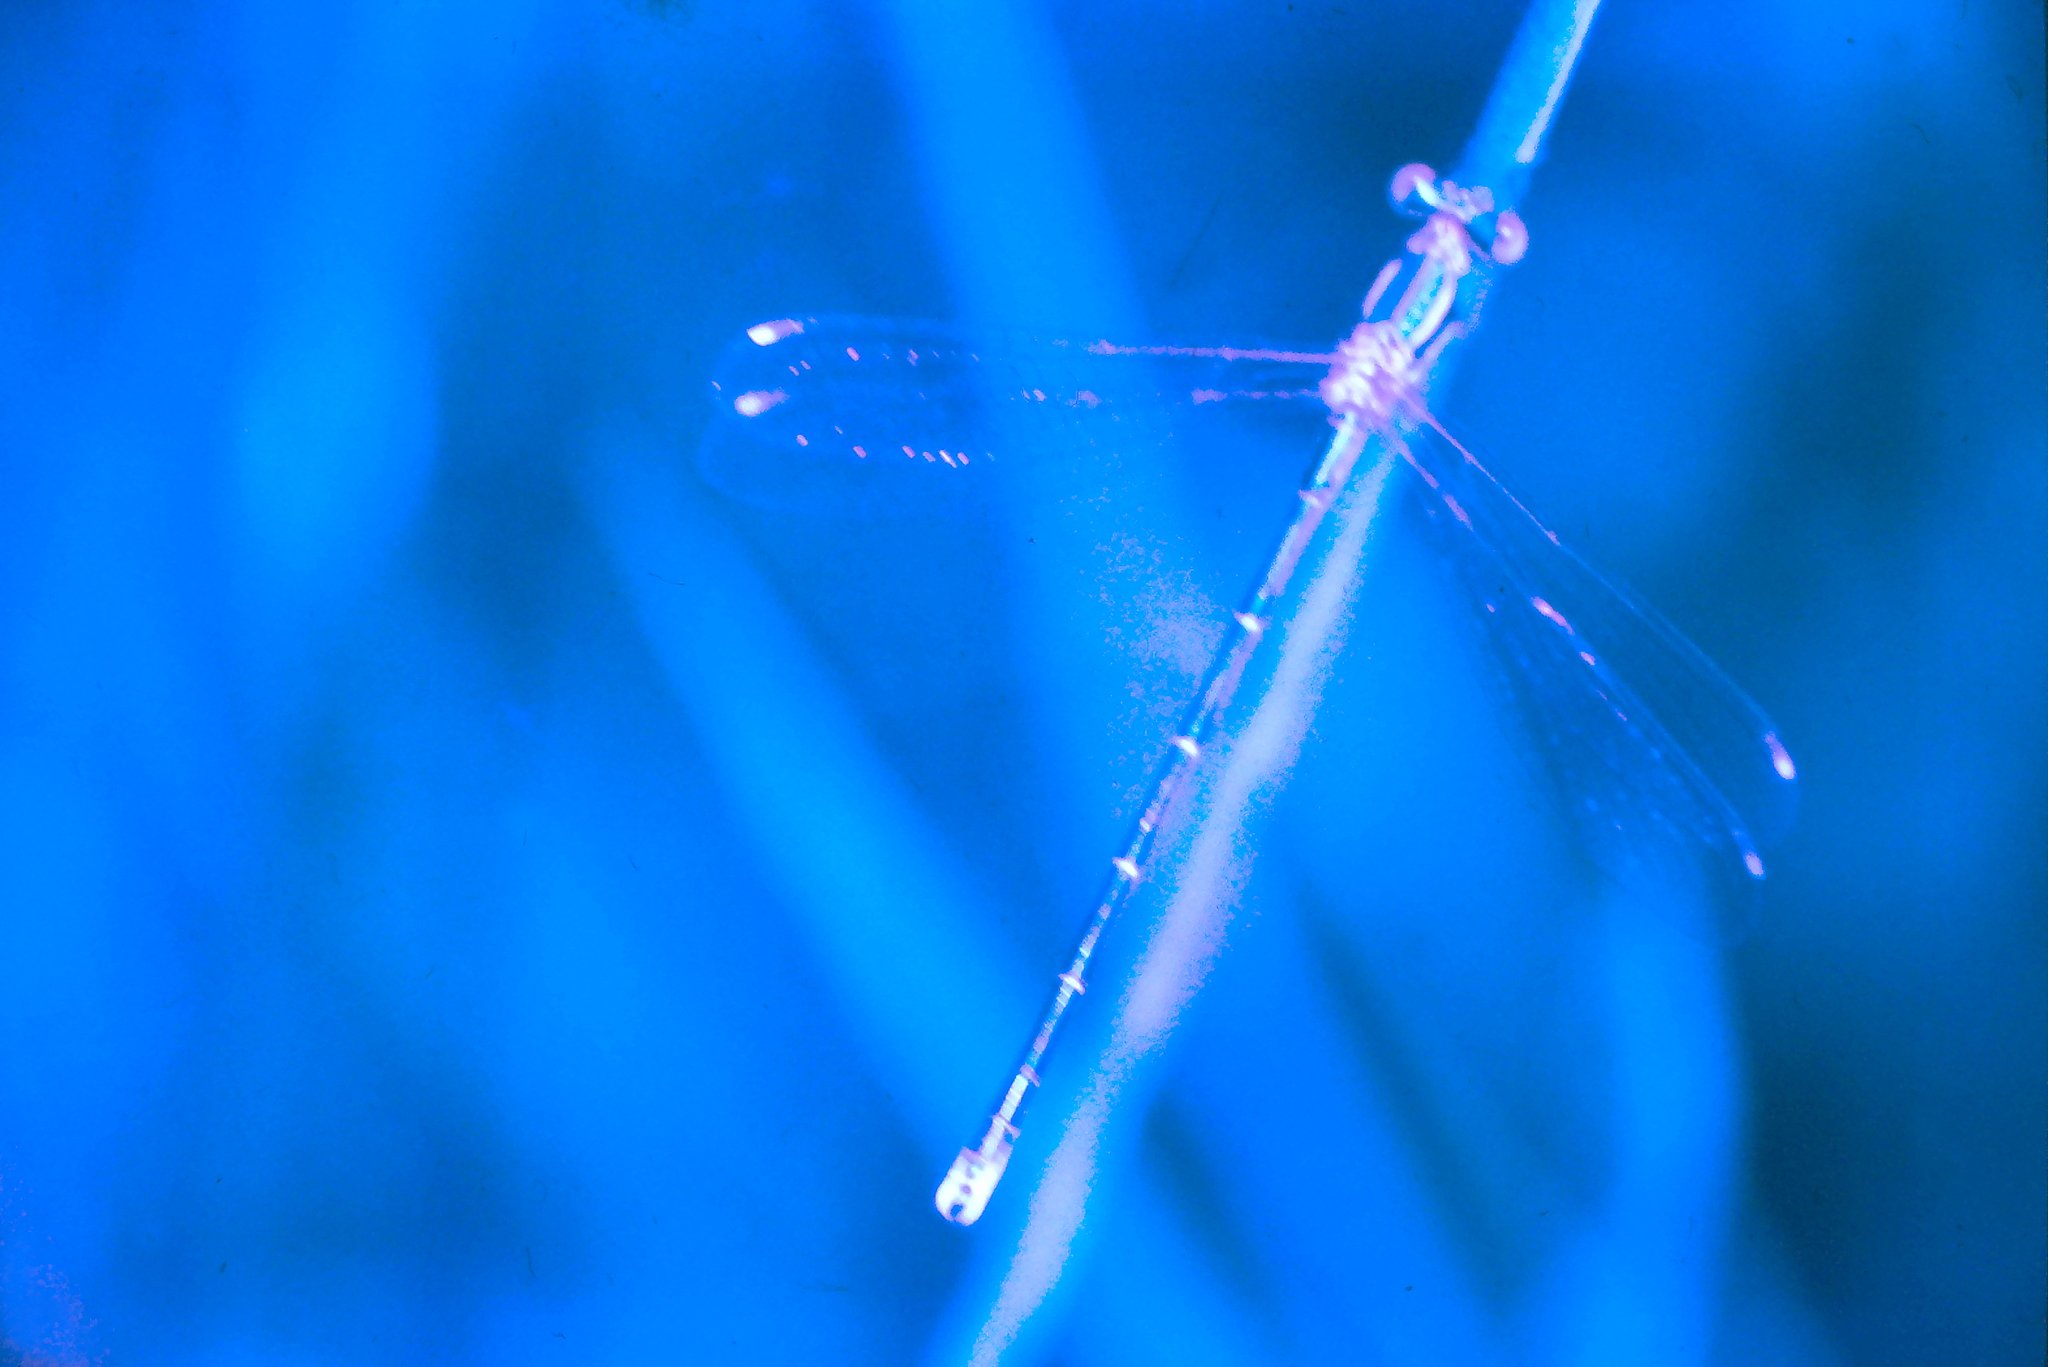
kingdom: Animalia
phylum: Arthropoda
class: Insecta
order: Odonata
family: Lestidae
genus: Lestes
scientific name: Lestes barbarus
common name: Migrant spreadwing
